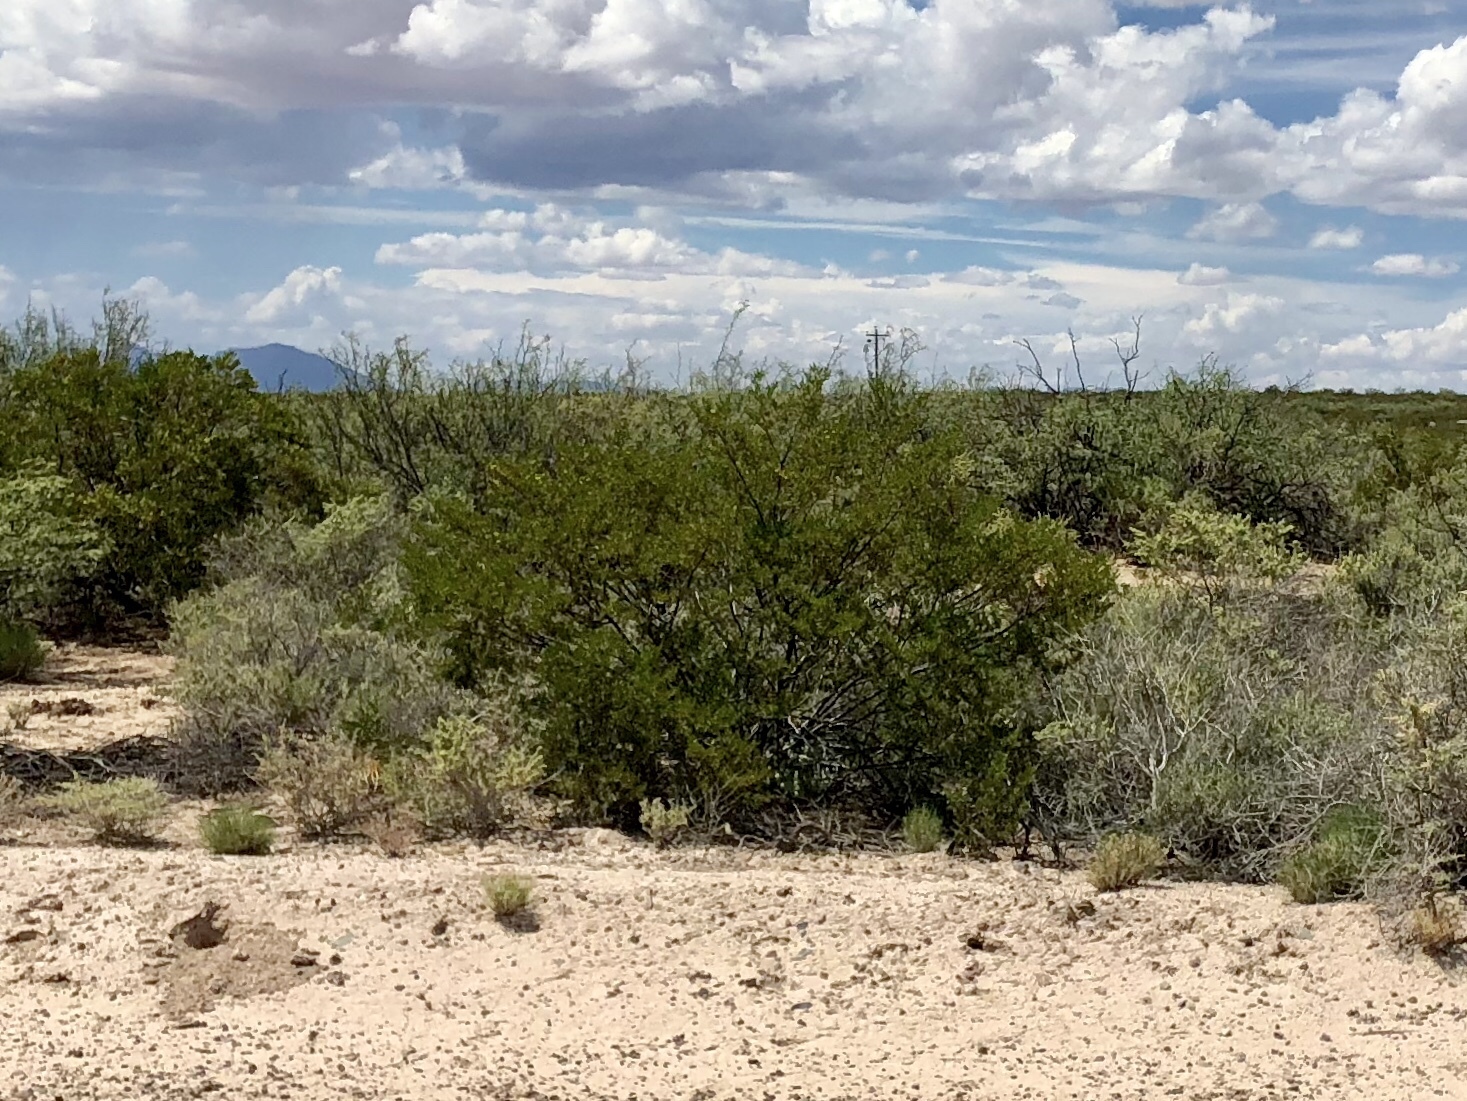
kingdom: Plantae
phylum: Tracheophyta
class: Magnoliopsida
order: Zygophyllales
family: Zygophyllaceae
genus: Larrea
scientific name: Larrea tridentata
